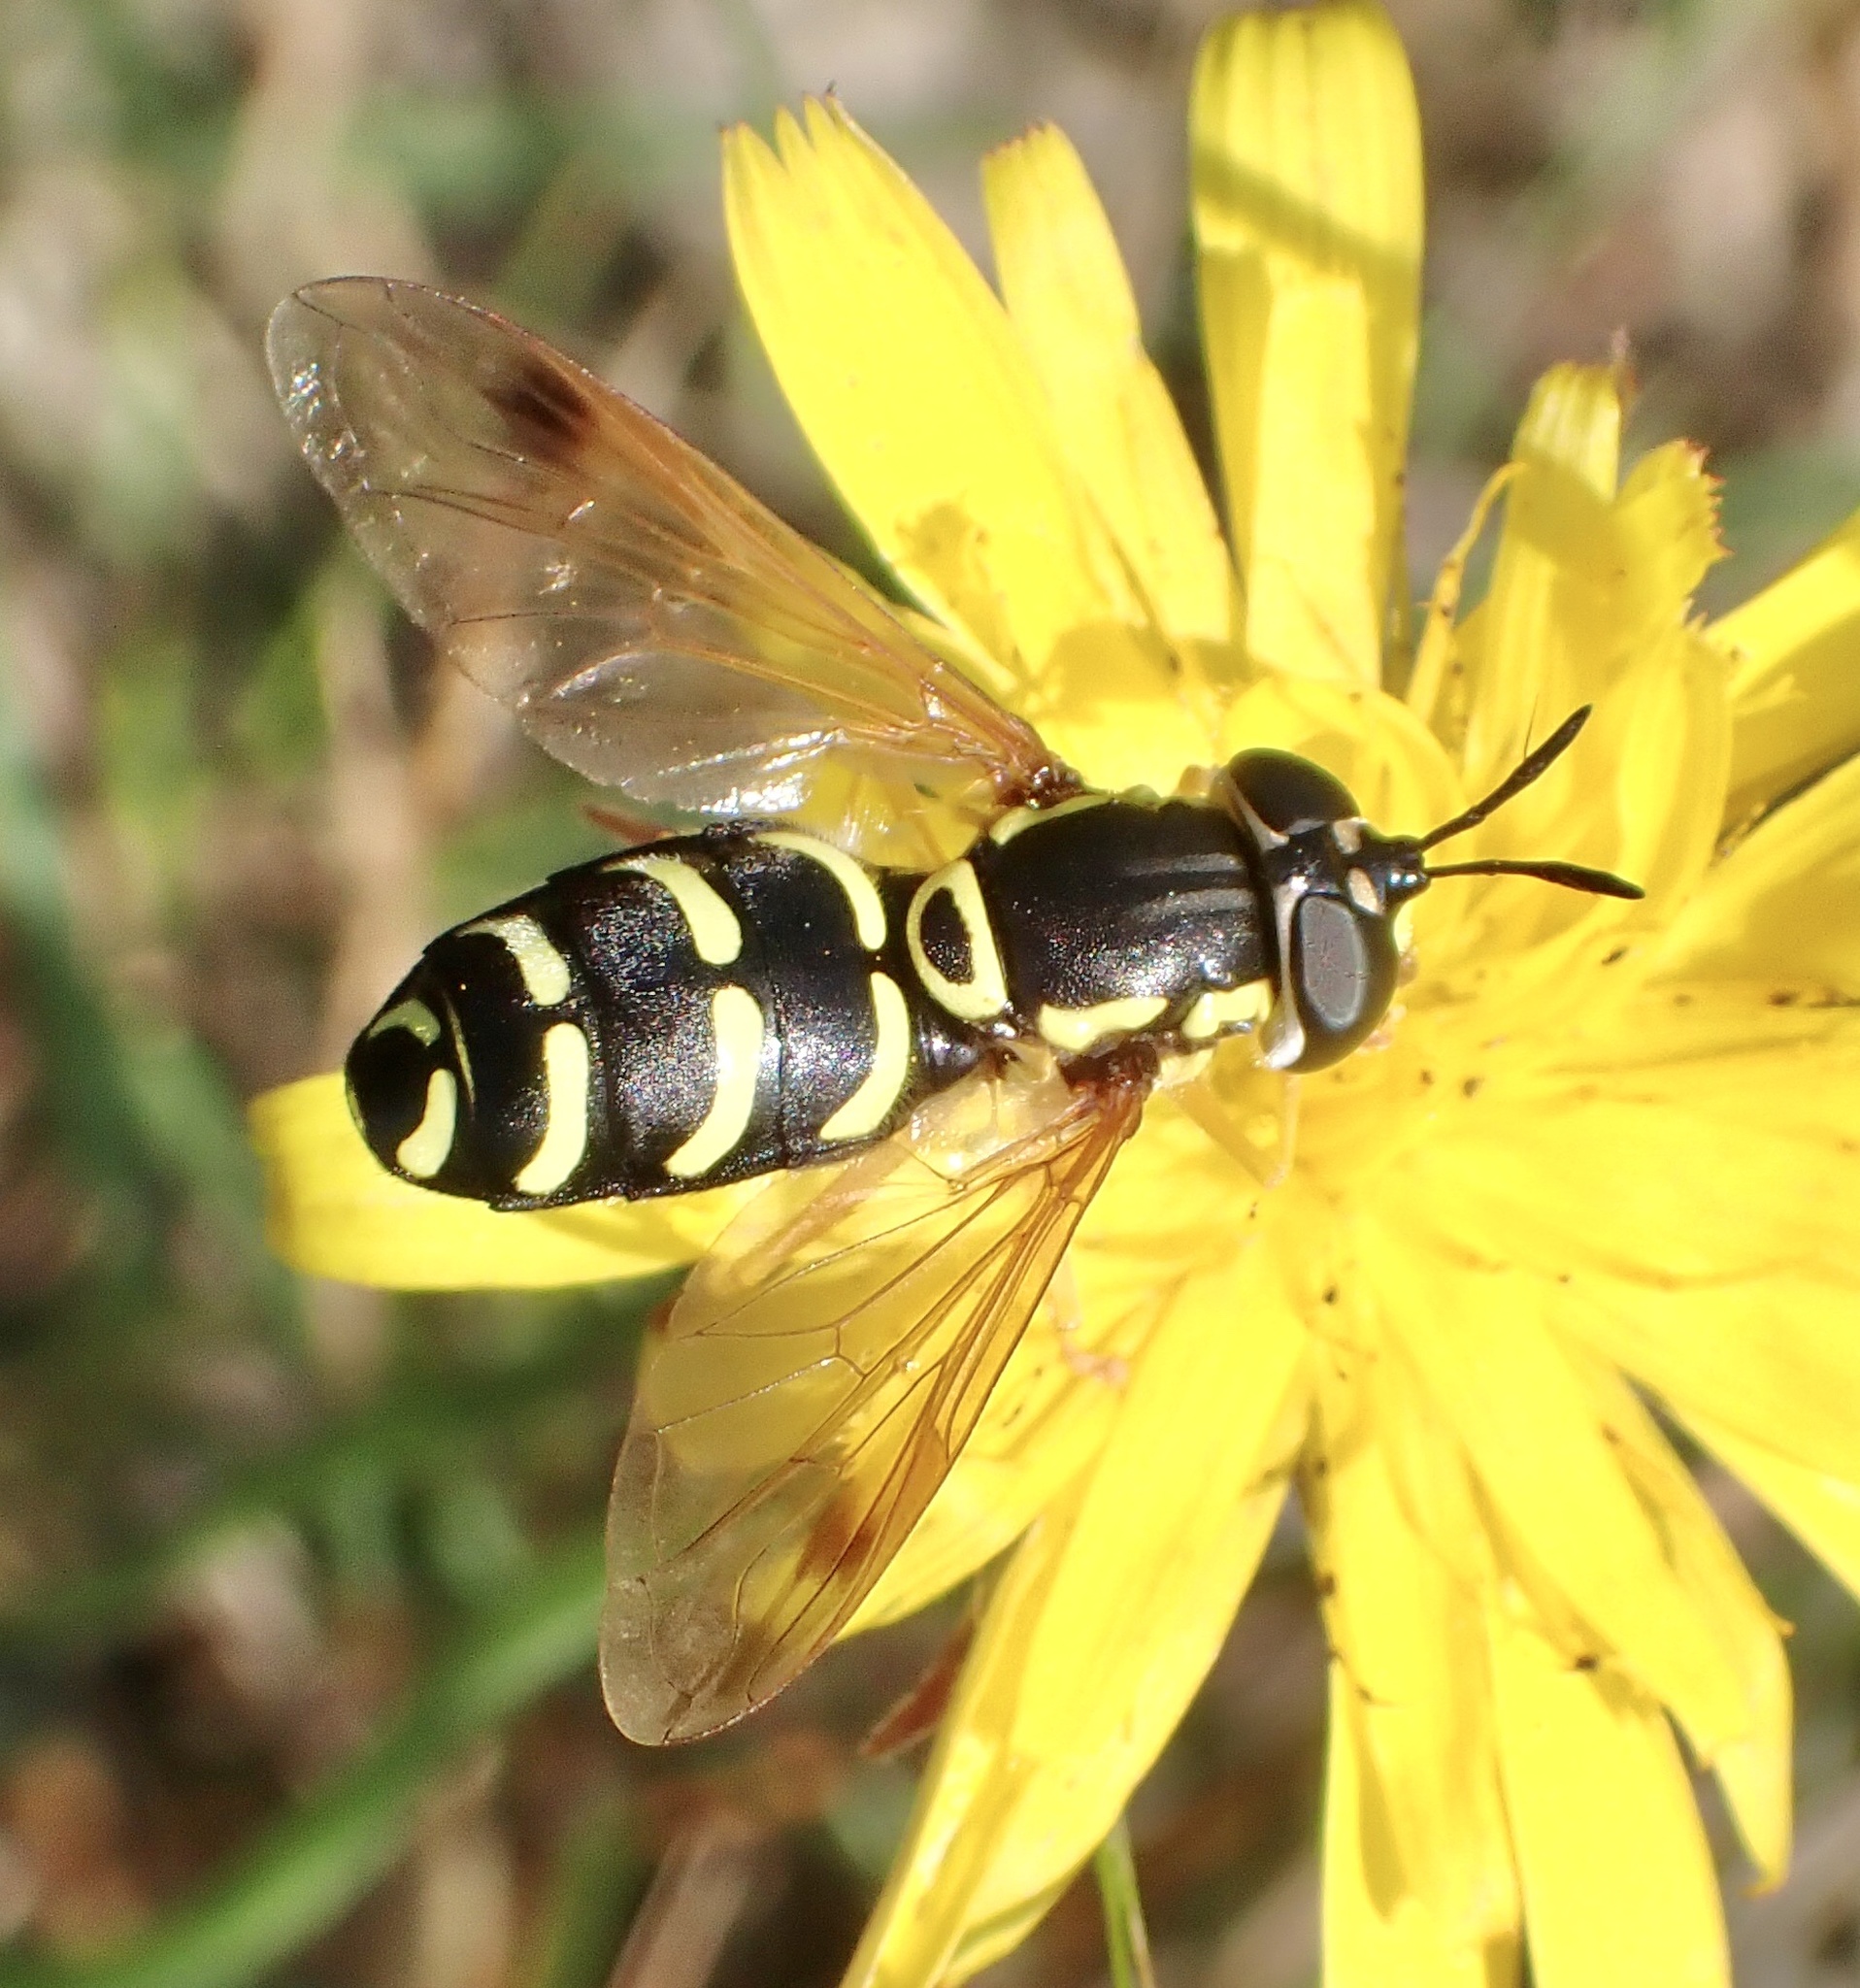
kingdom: Animalia
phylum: Arthropoda
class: Insecta
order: Diptera
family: Syrphidae
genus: Chrysotoxum
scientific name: Chrysotoxum festivum
